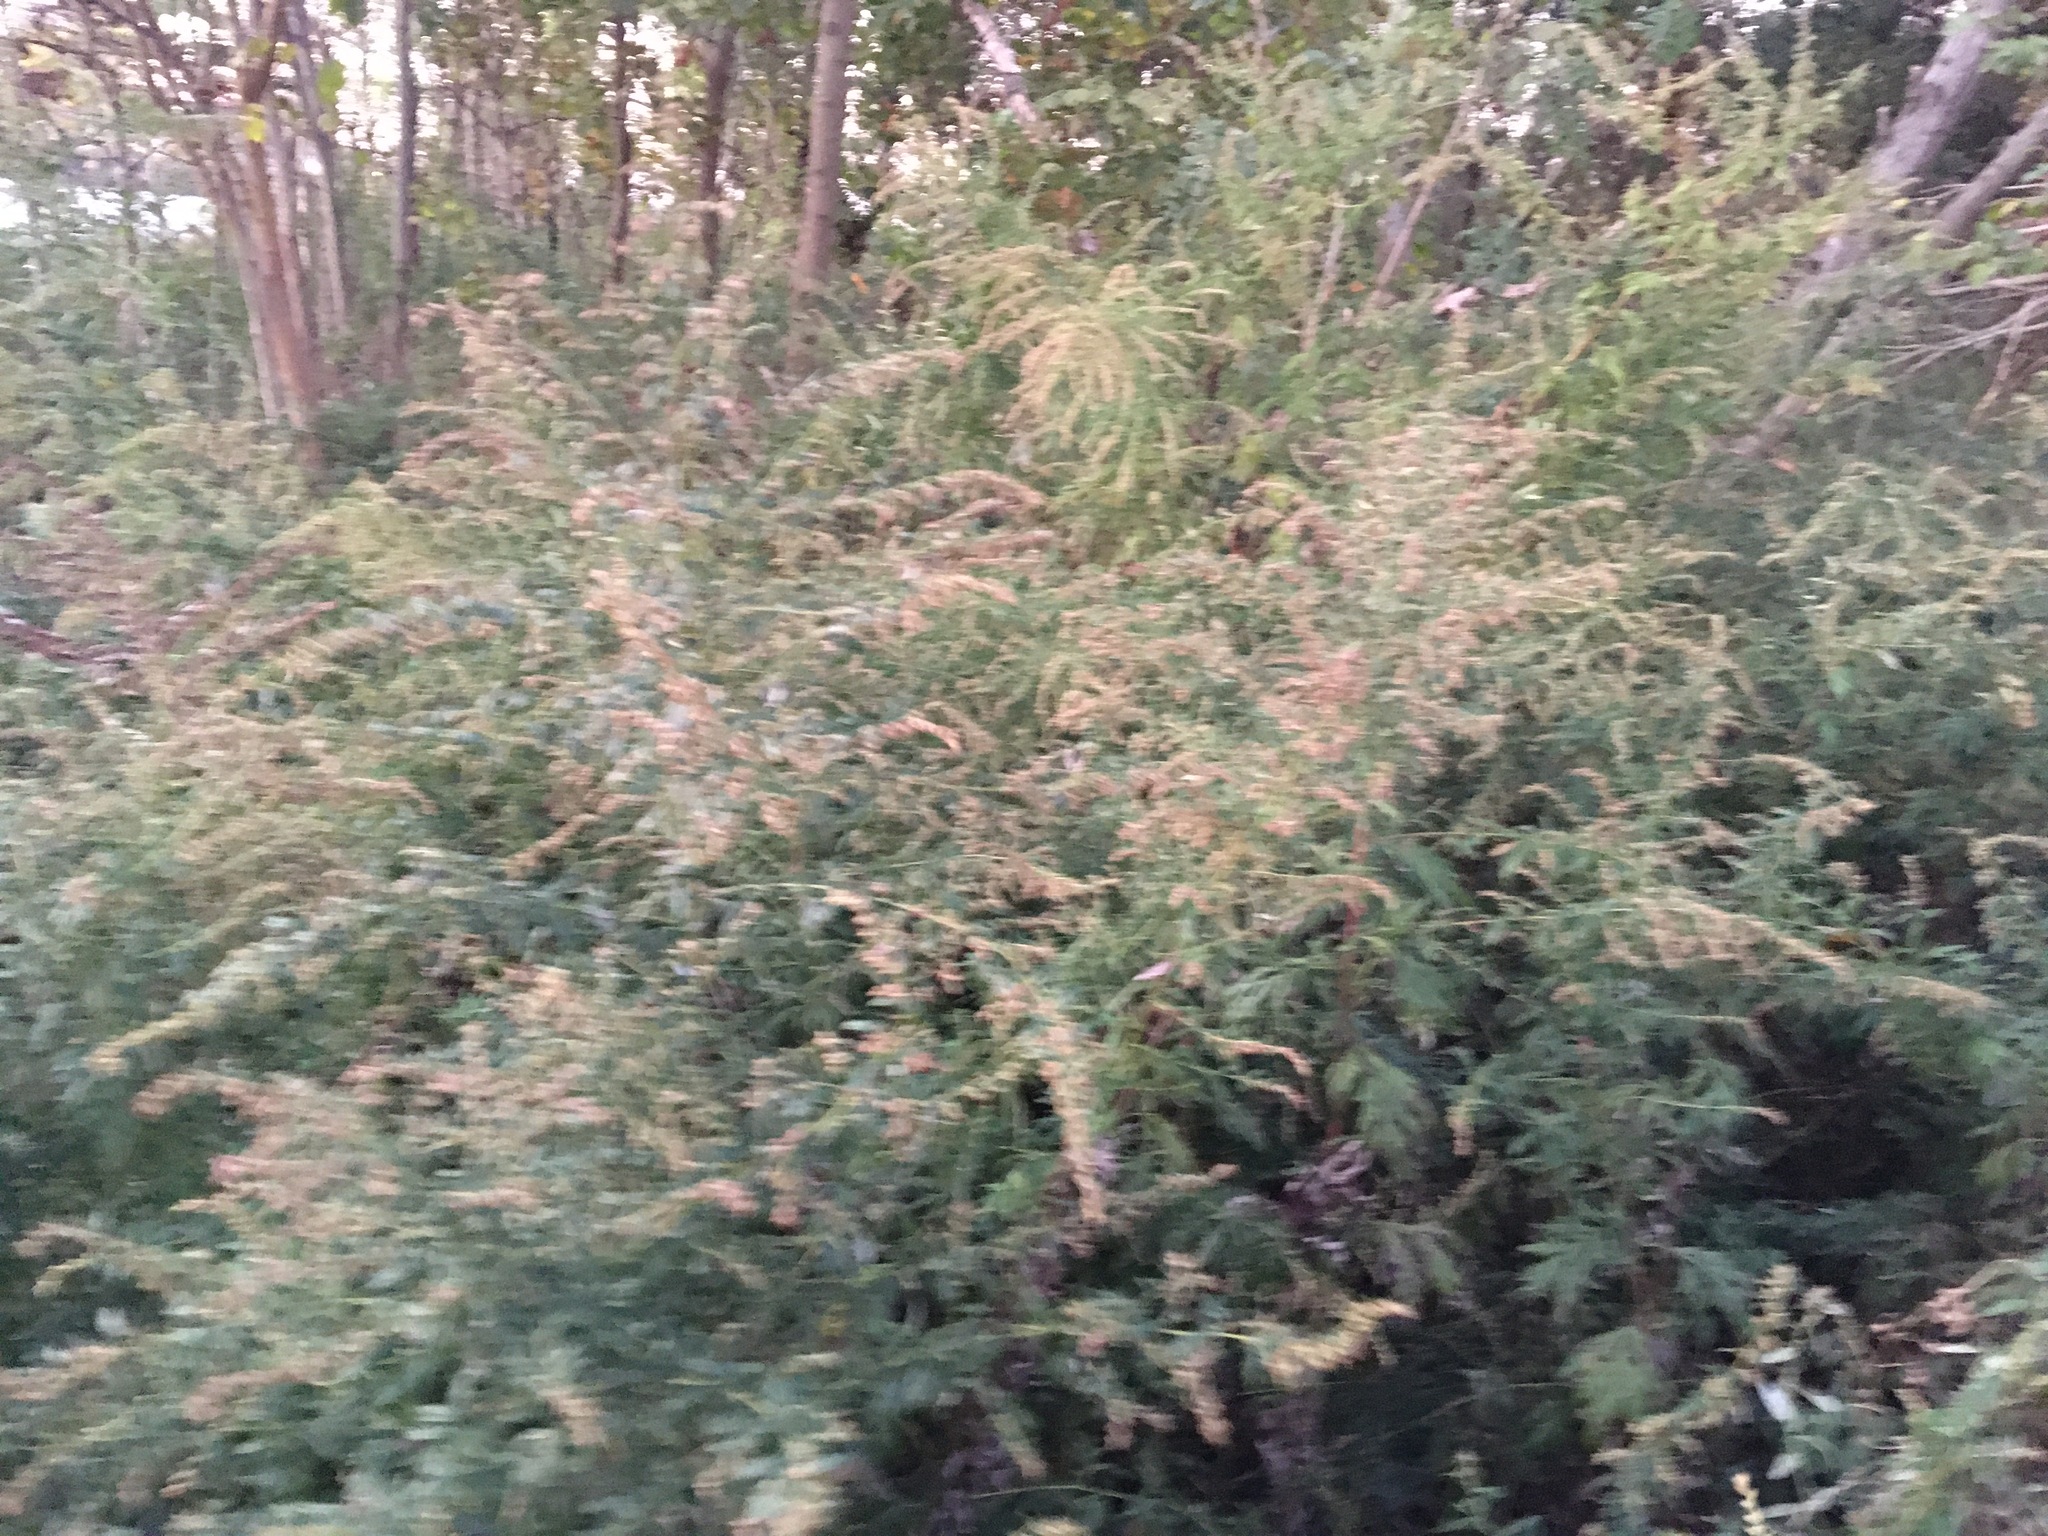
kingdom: Plantae
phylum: Tracheophyta
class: Magnoliopsida
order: Asterales
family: Asteraceae
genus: Artemisia
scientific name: Artemisia vulgaris
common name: Mugwort
